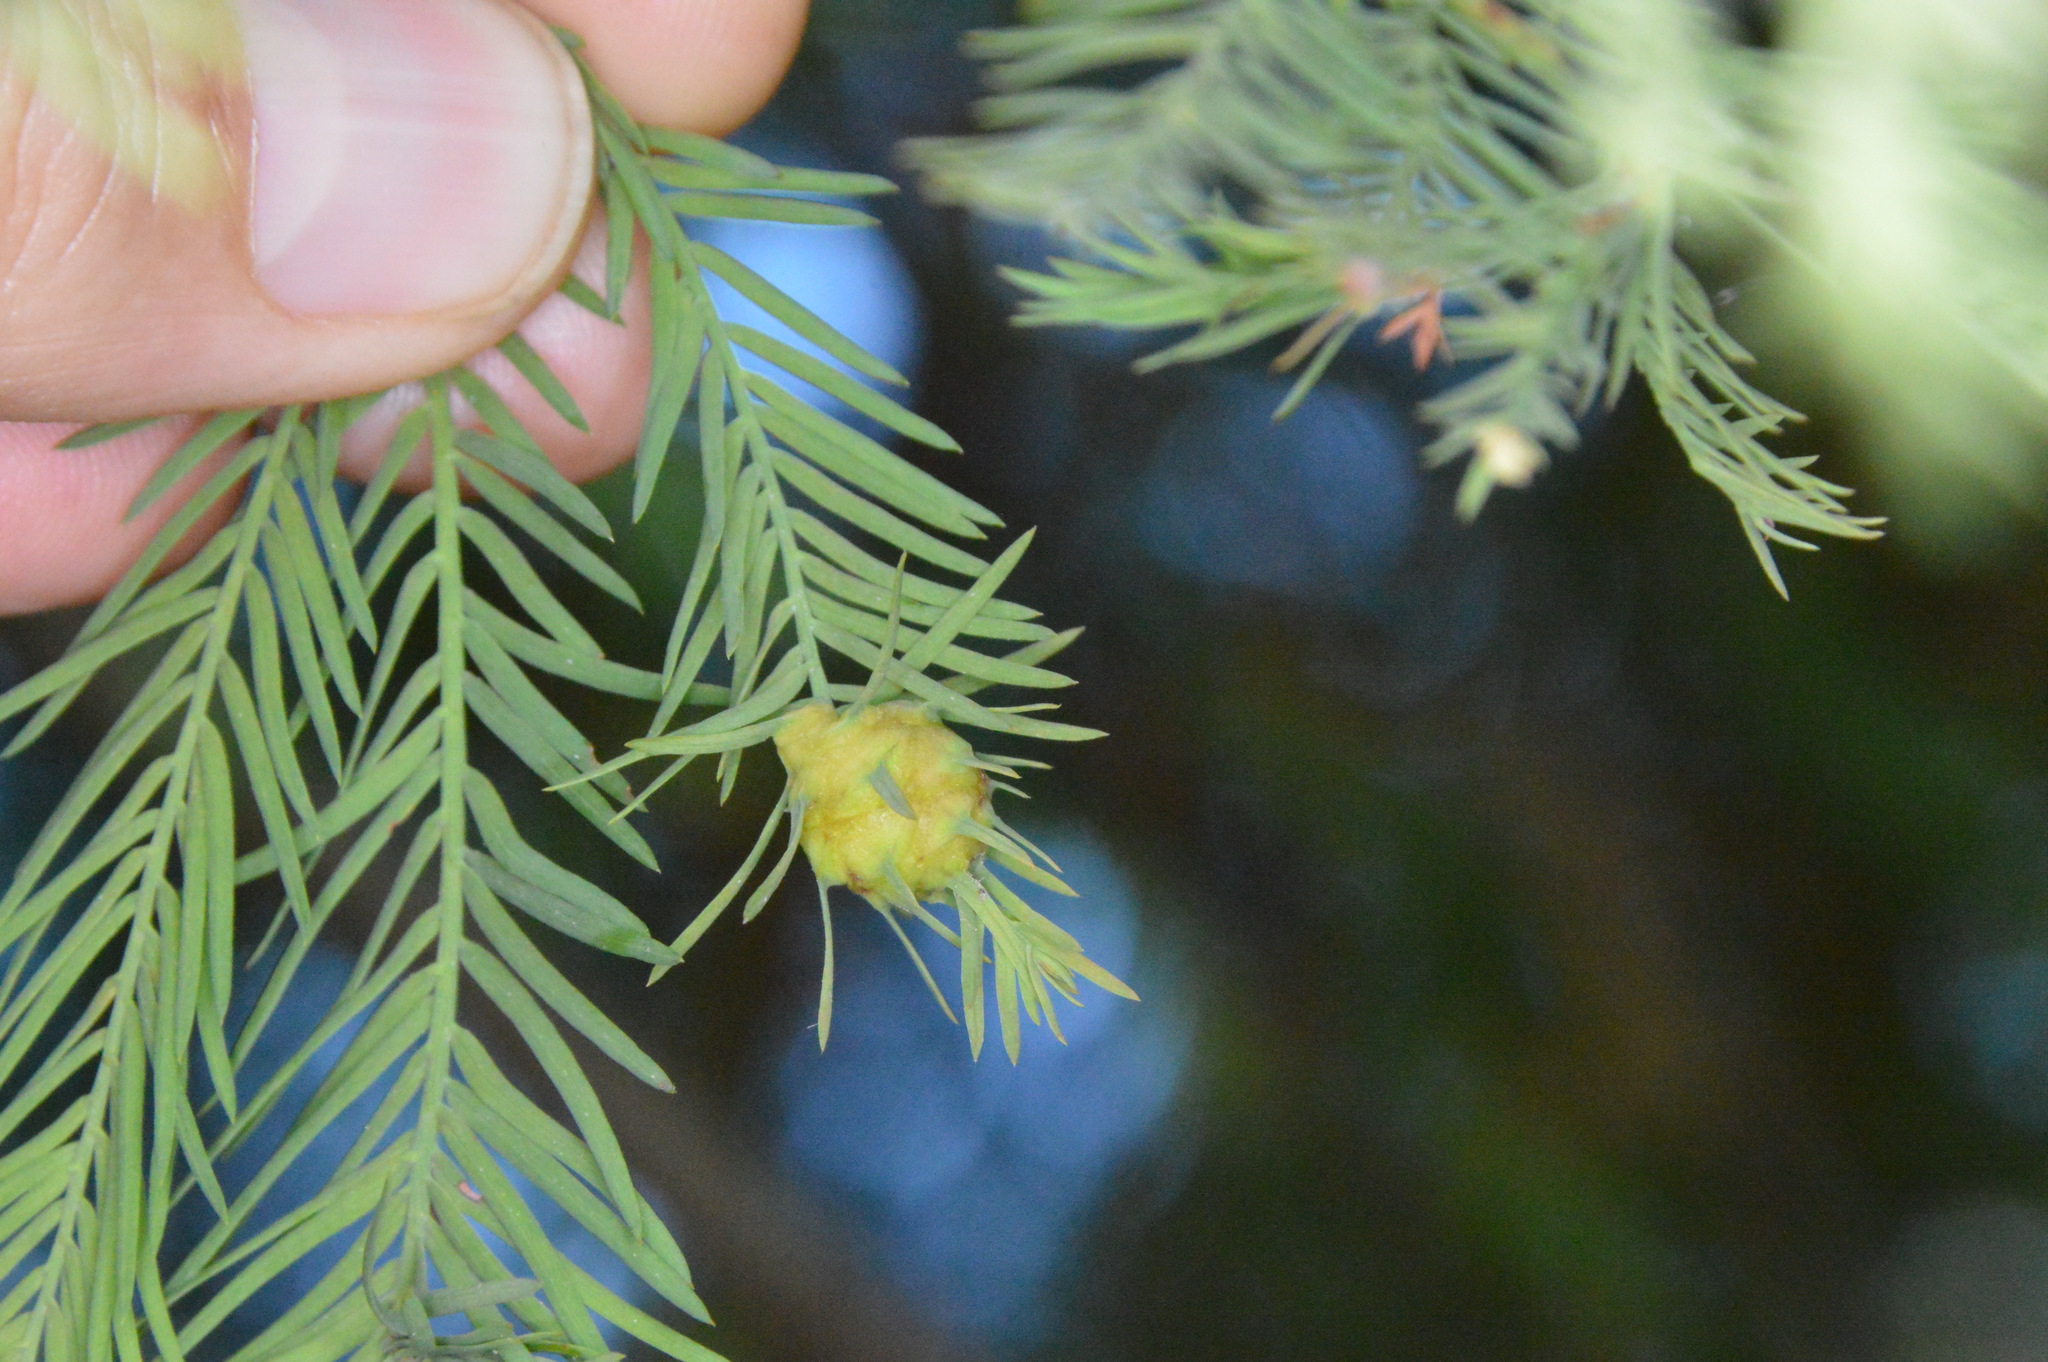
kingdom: Animalia
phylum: Arthropoda
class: Insecta
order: Diptera
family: Cecidomyiidae
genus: Taxodiomyia
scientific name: Taxodiomyia cupressiananassa
